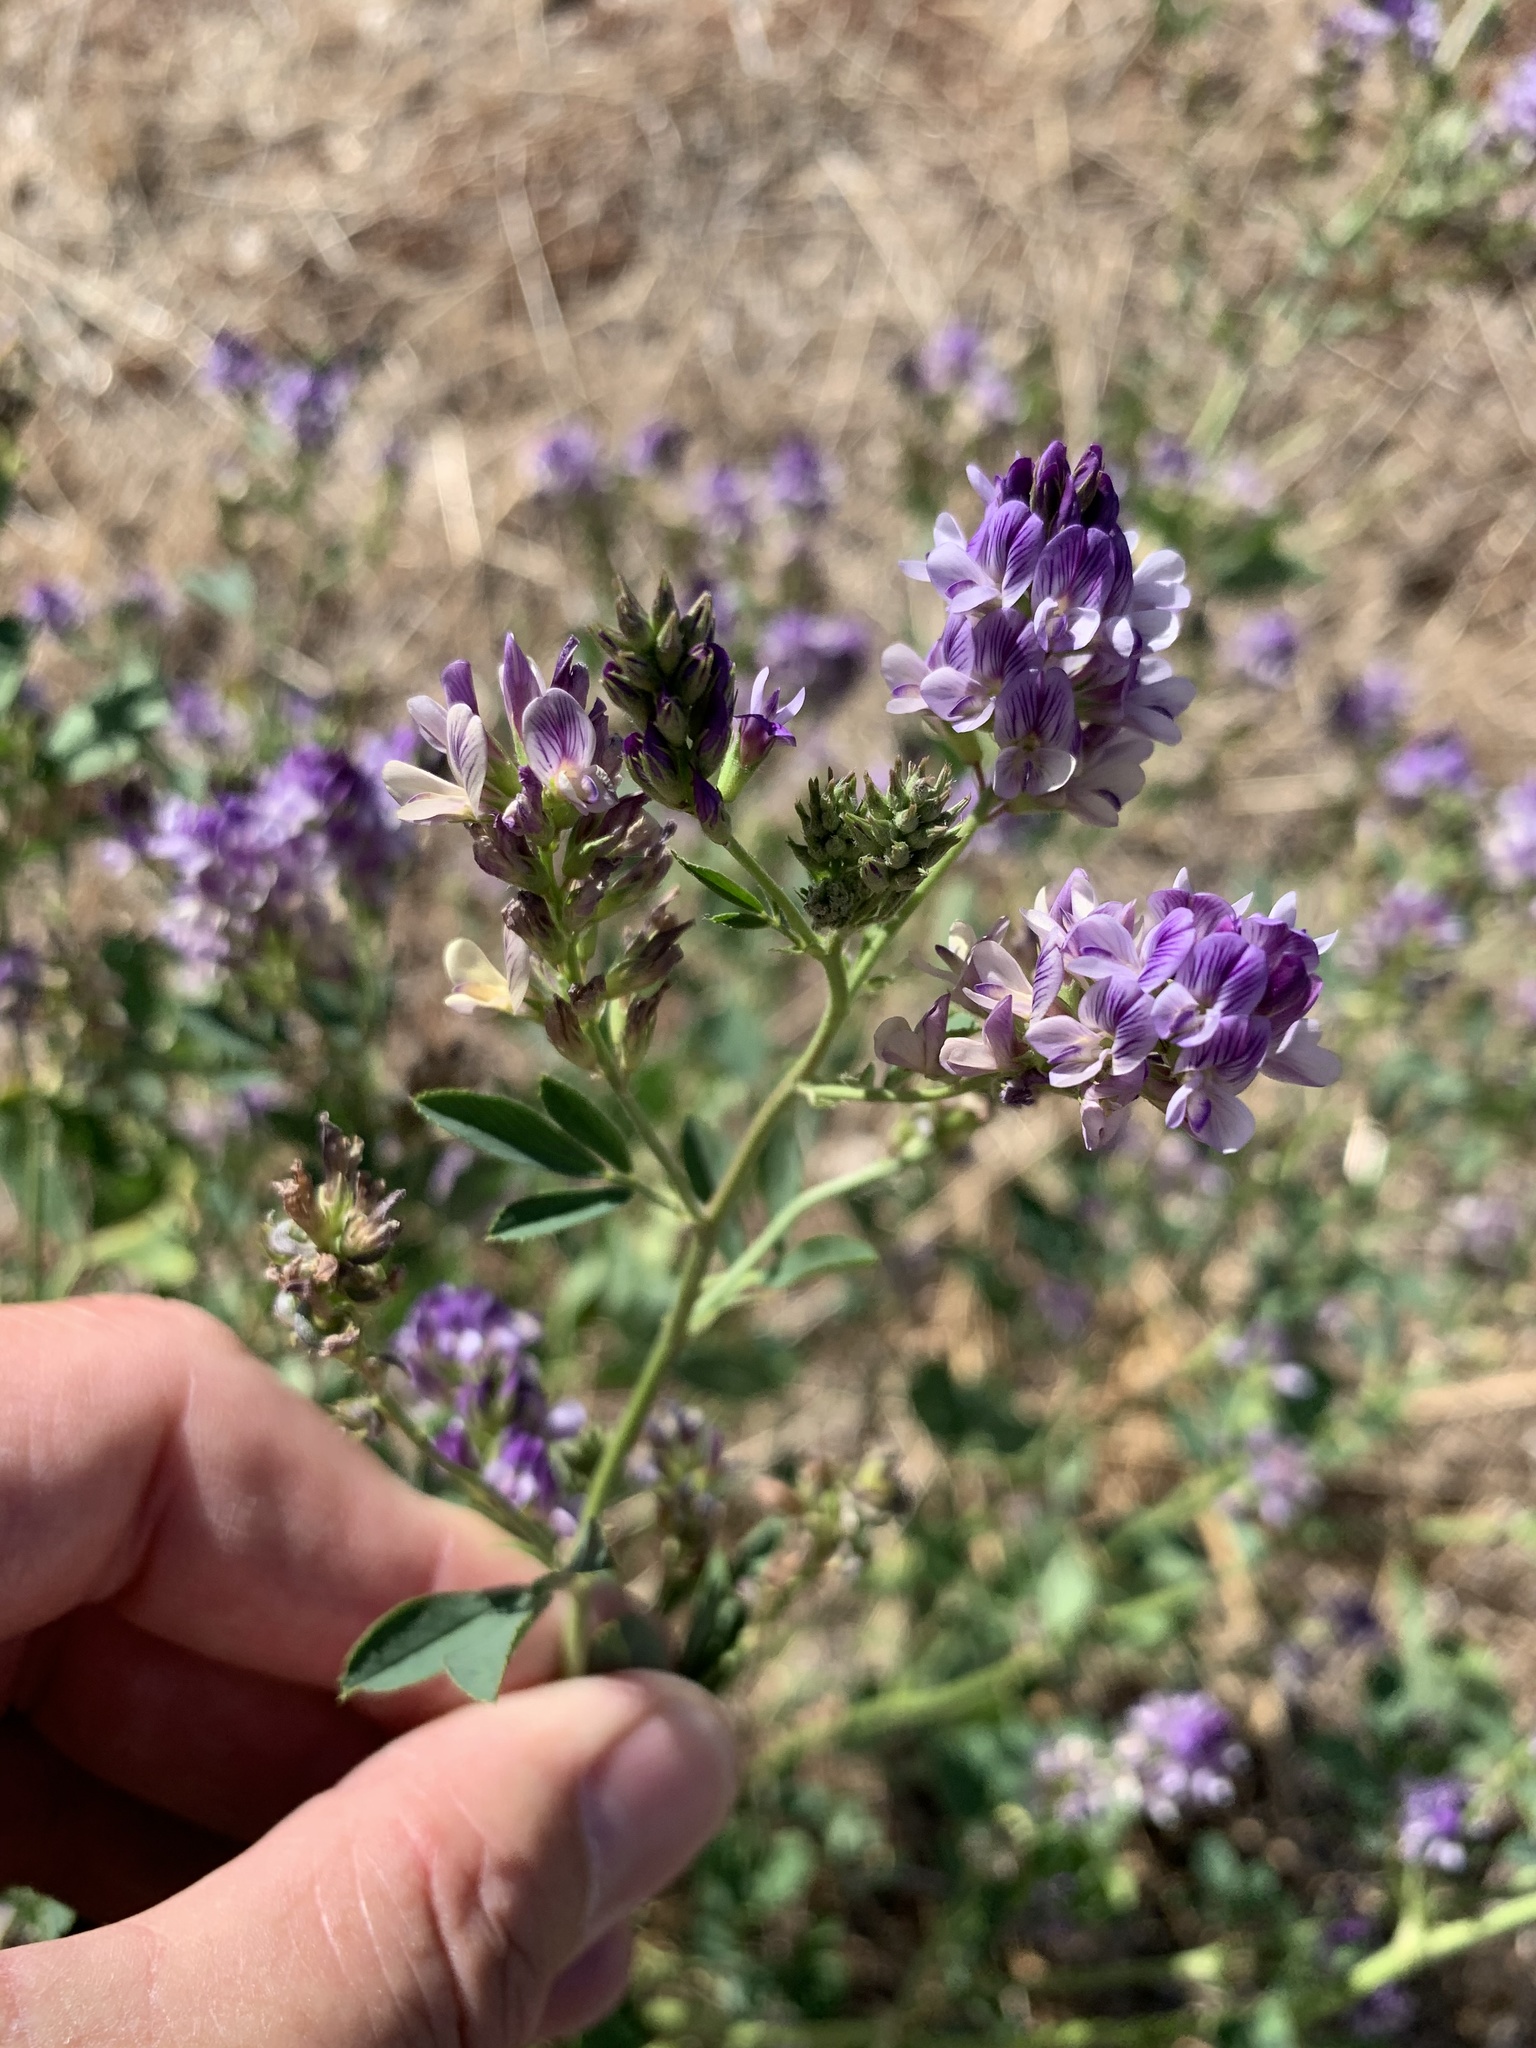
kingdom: Plantae
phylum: Tracheophyta
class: Magnoliopsida
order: Fabales
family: Fabaceae
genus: Medicago
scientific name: Medicago sativa
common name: Alfalfa
